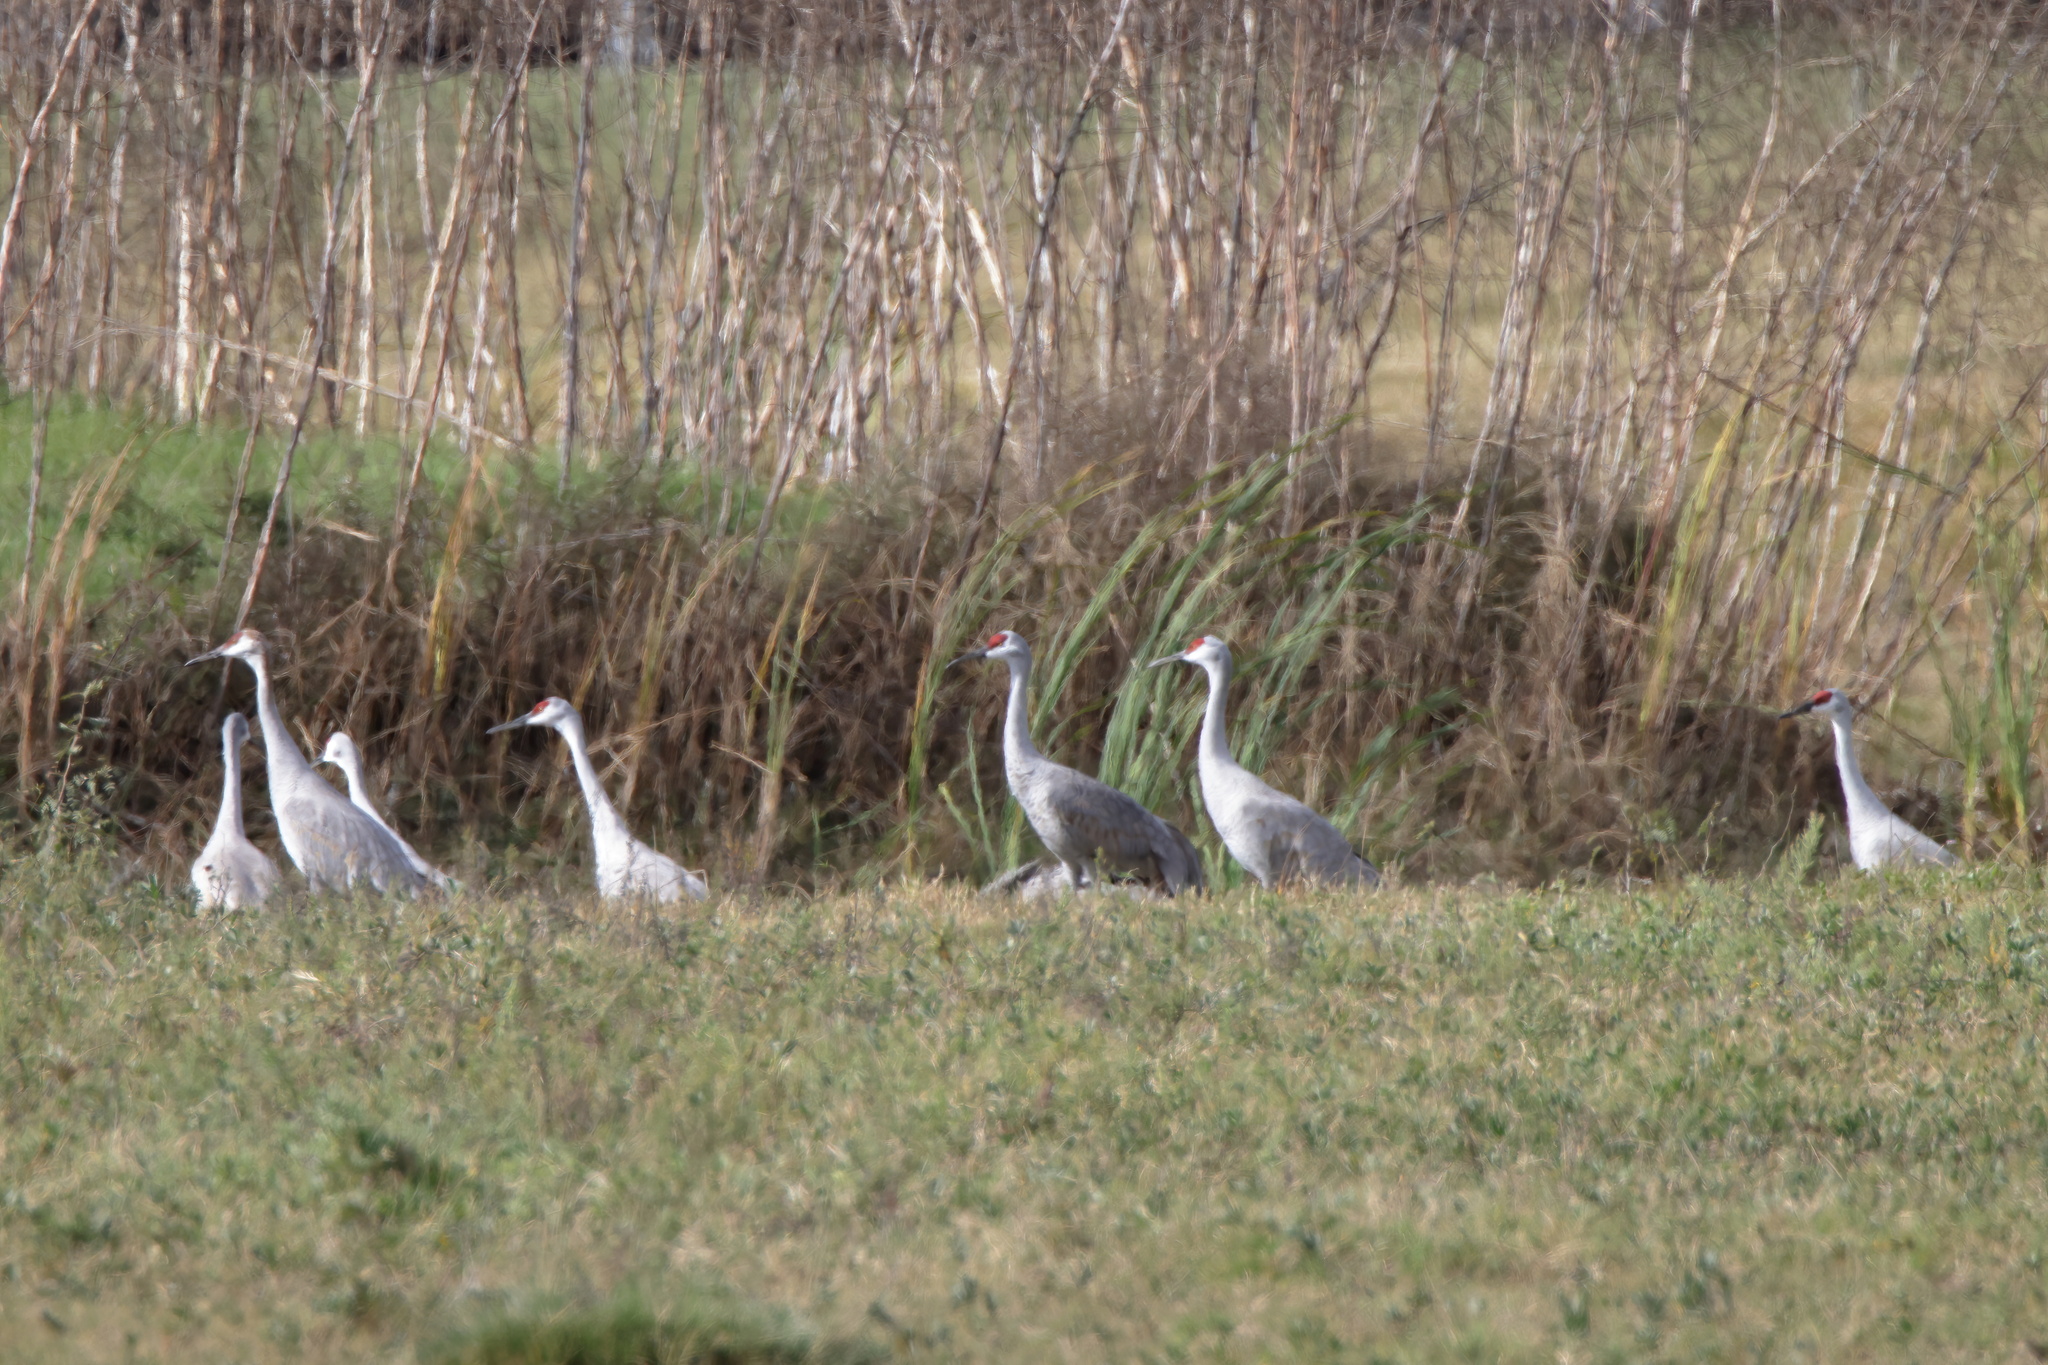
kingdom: Animalia
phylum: Chordata
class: Aves
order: Gruiformes
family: Gruidae
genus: Grus
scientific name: Grus canadensis
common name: Sandhill crane
